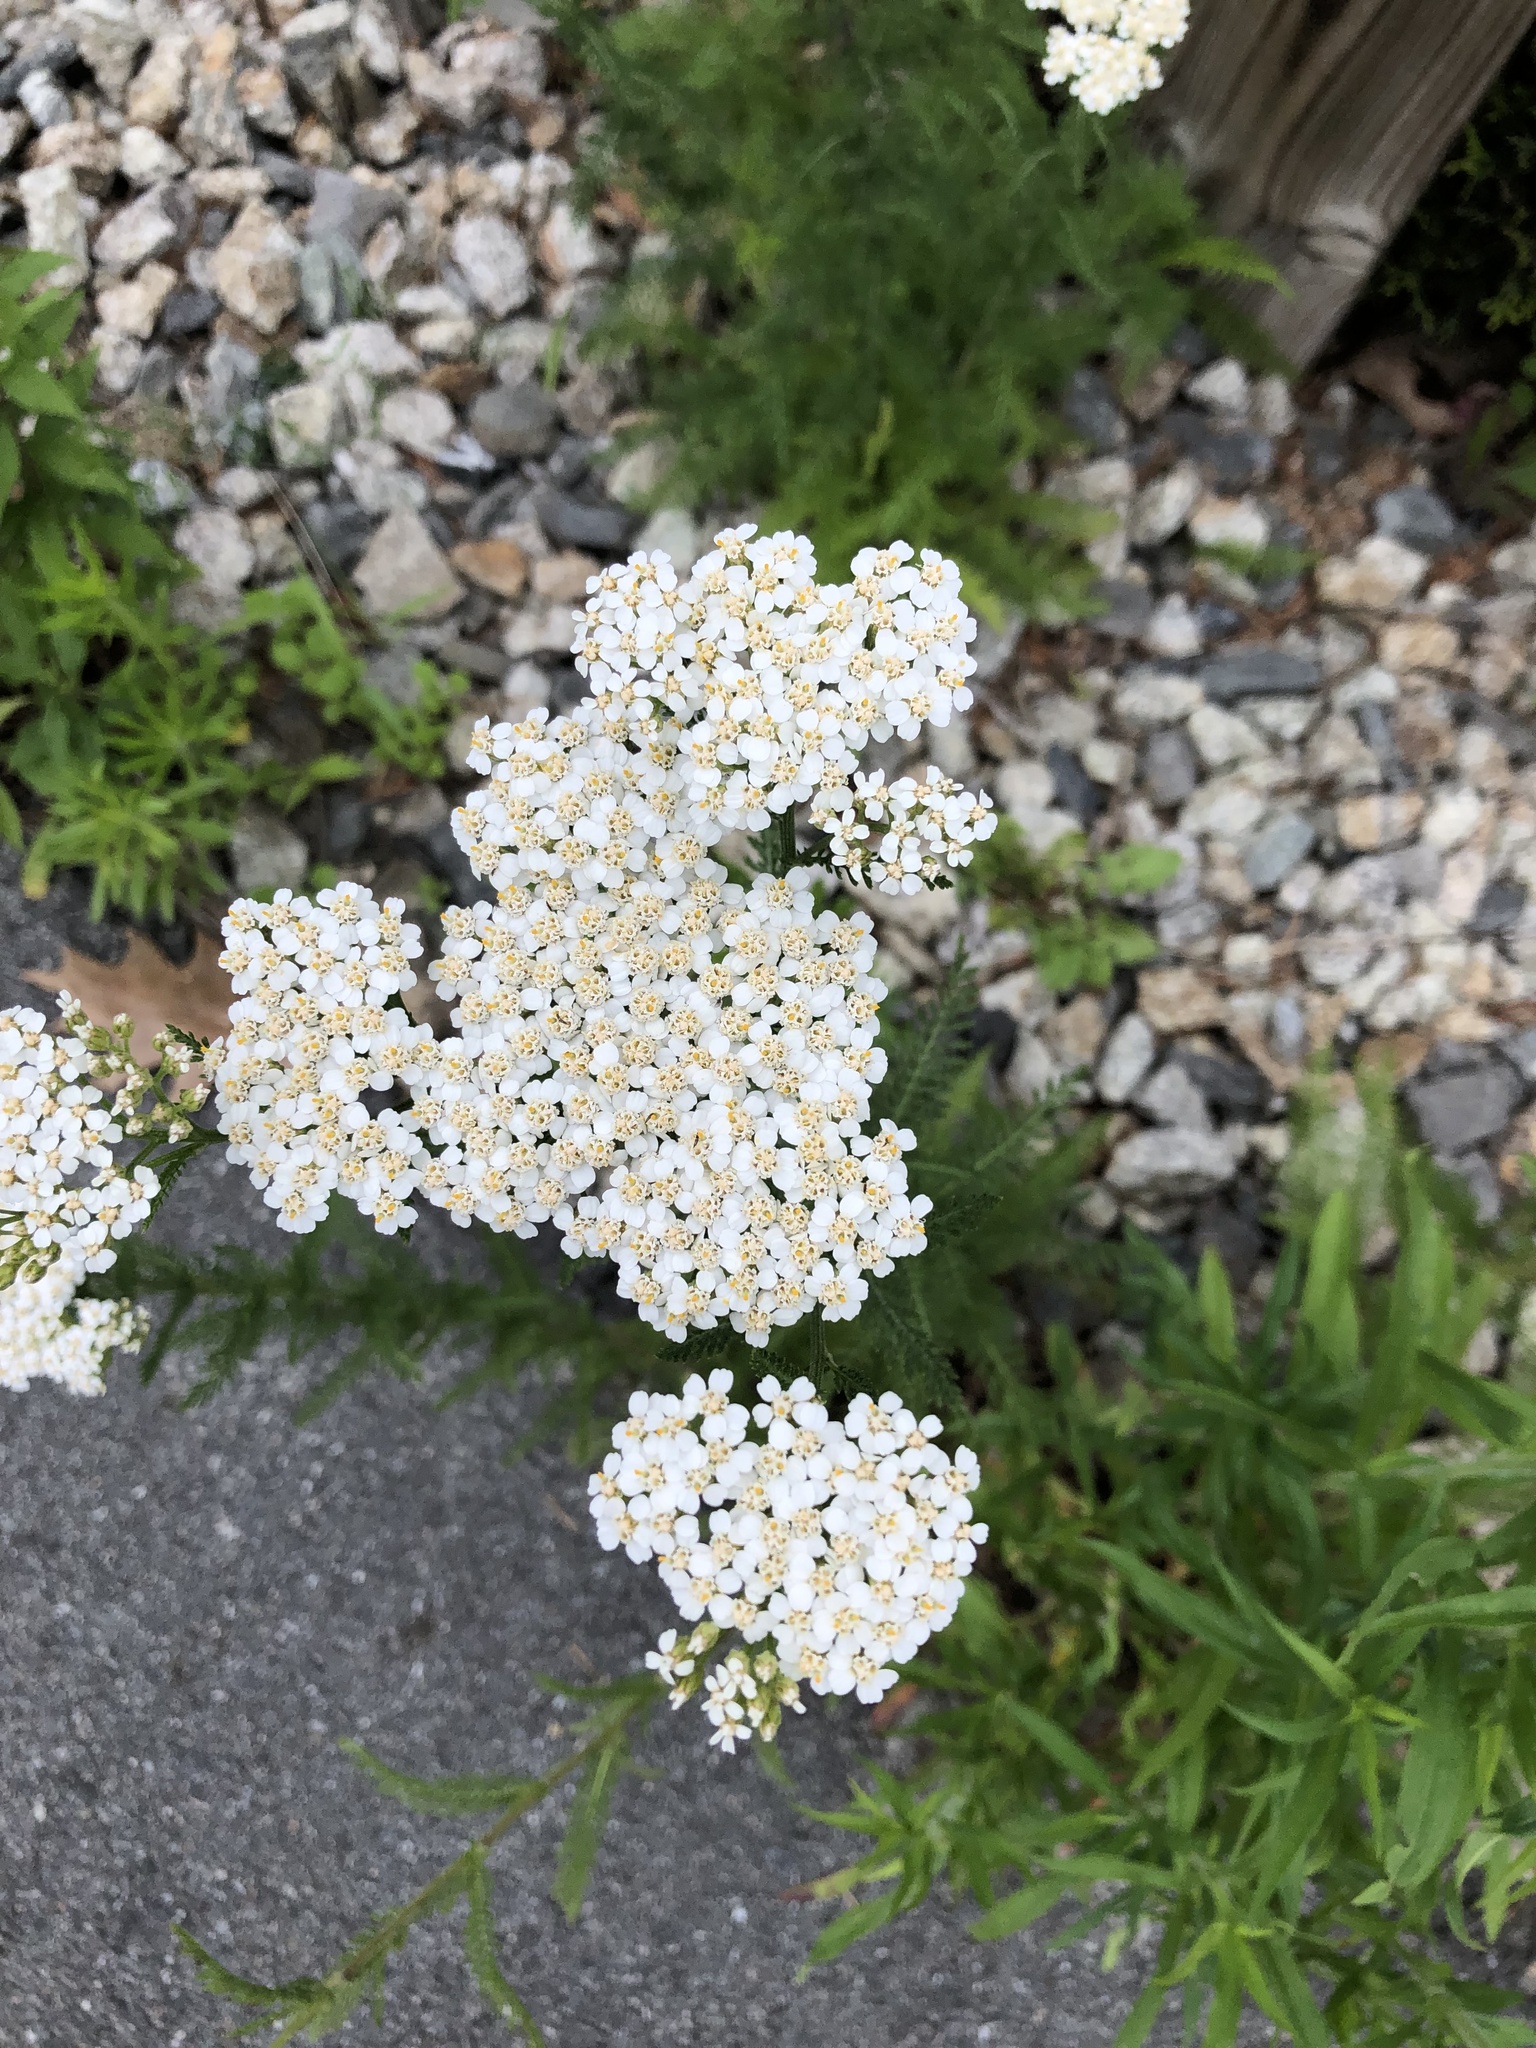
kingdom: Plantae
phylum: Tracheophyta
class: Magnoliopsida
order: Asterales
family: Asteraceae
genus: Achillea
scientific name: Achillea millefolium
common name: Yarrow
